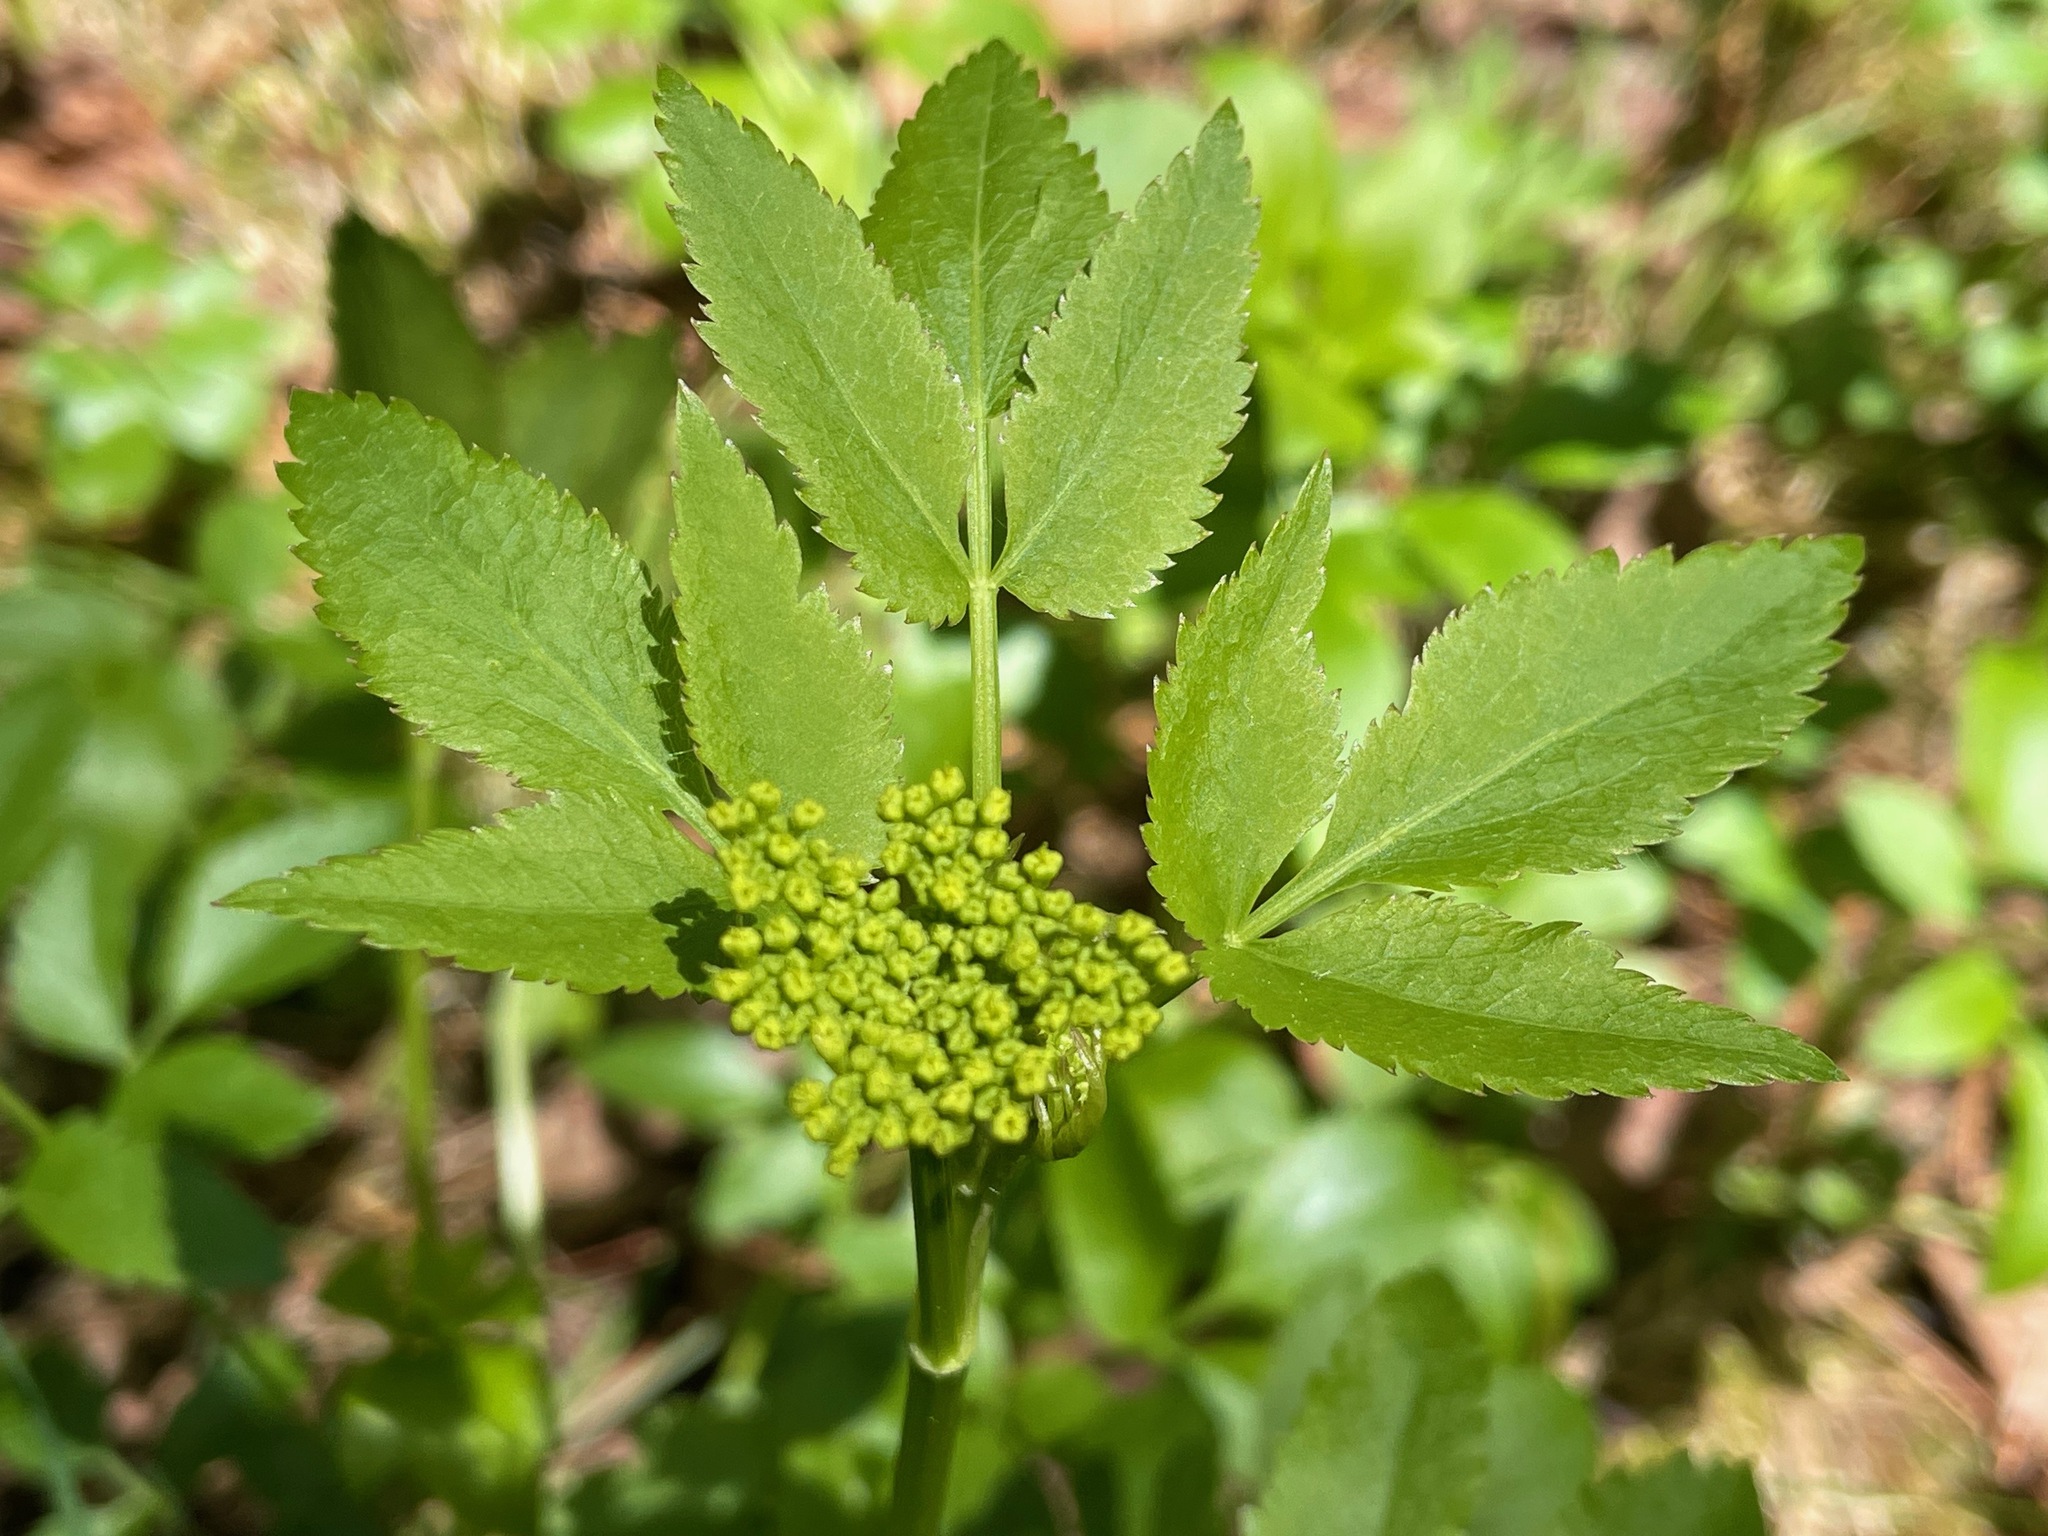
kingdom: Plantae
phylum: Tracheophyta
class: Magnoliopsida
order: Apiales
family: Apiaceae
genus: Zizia
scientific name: Zizia aurea
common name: Golden alexanders
